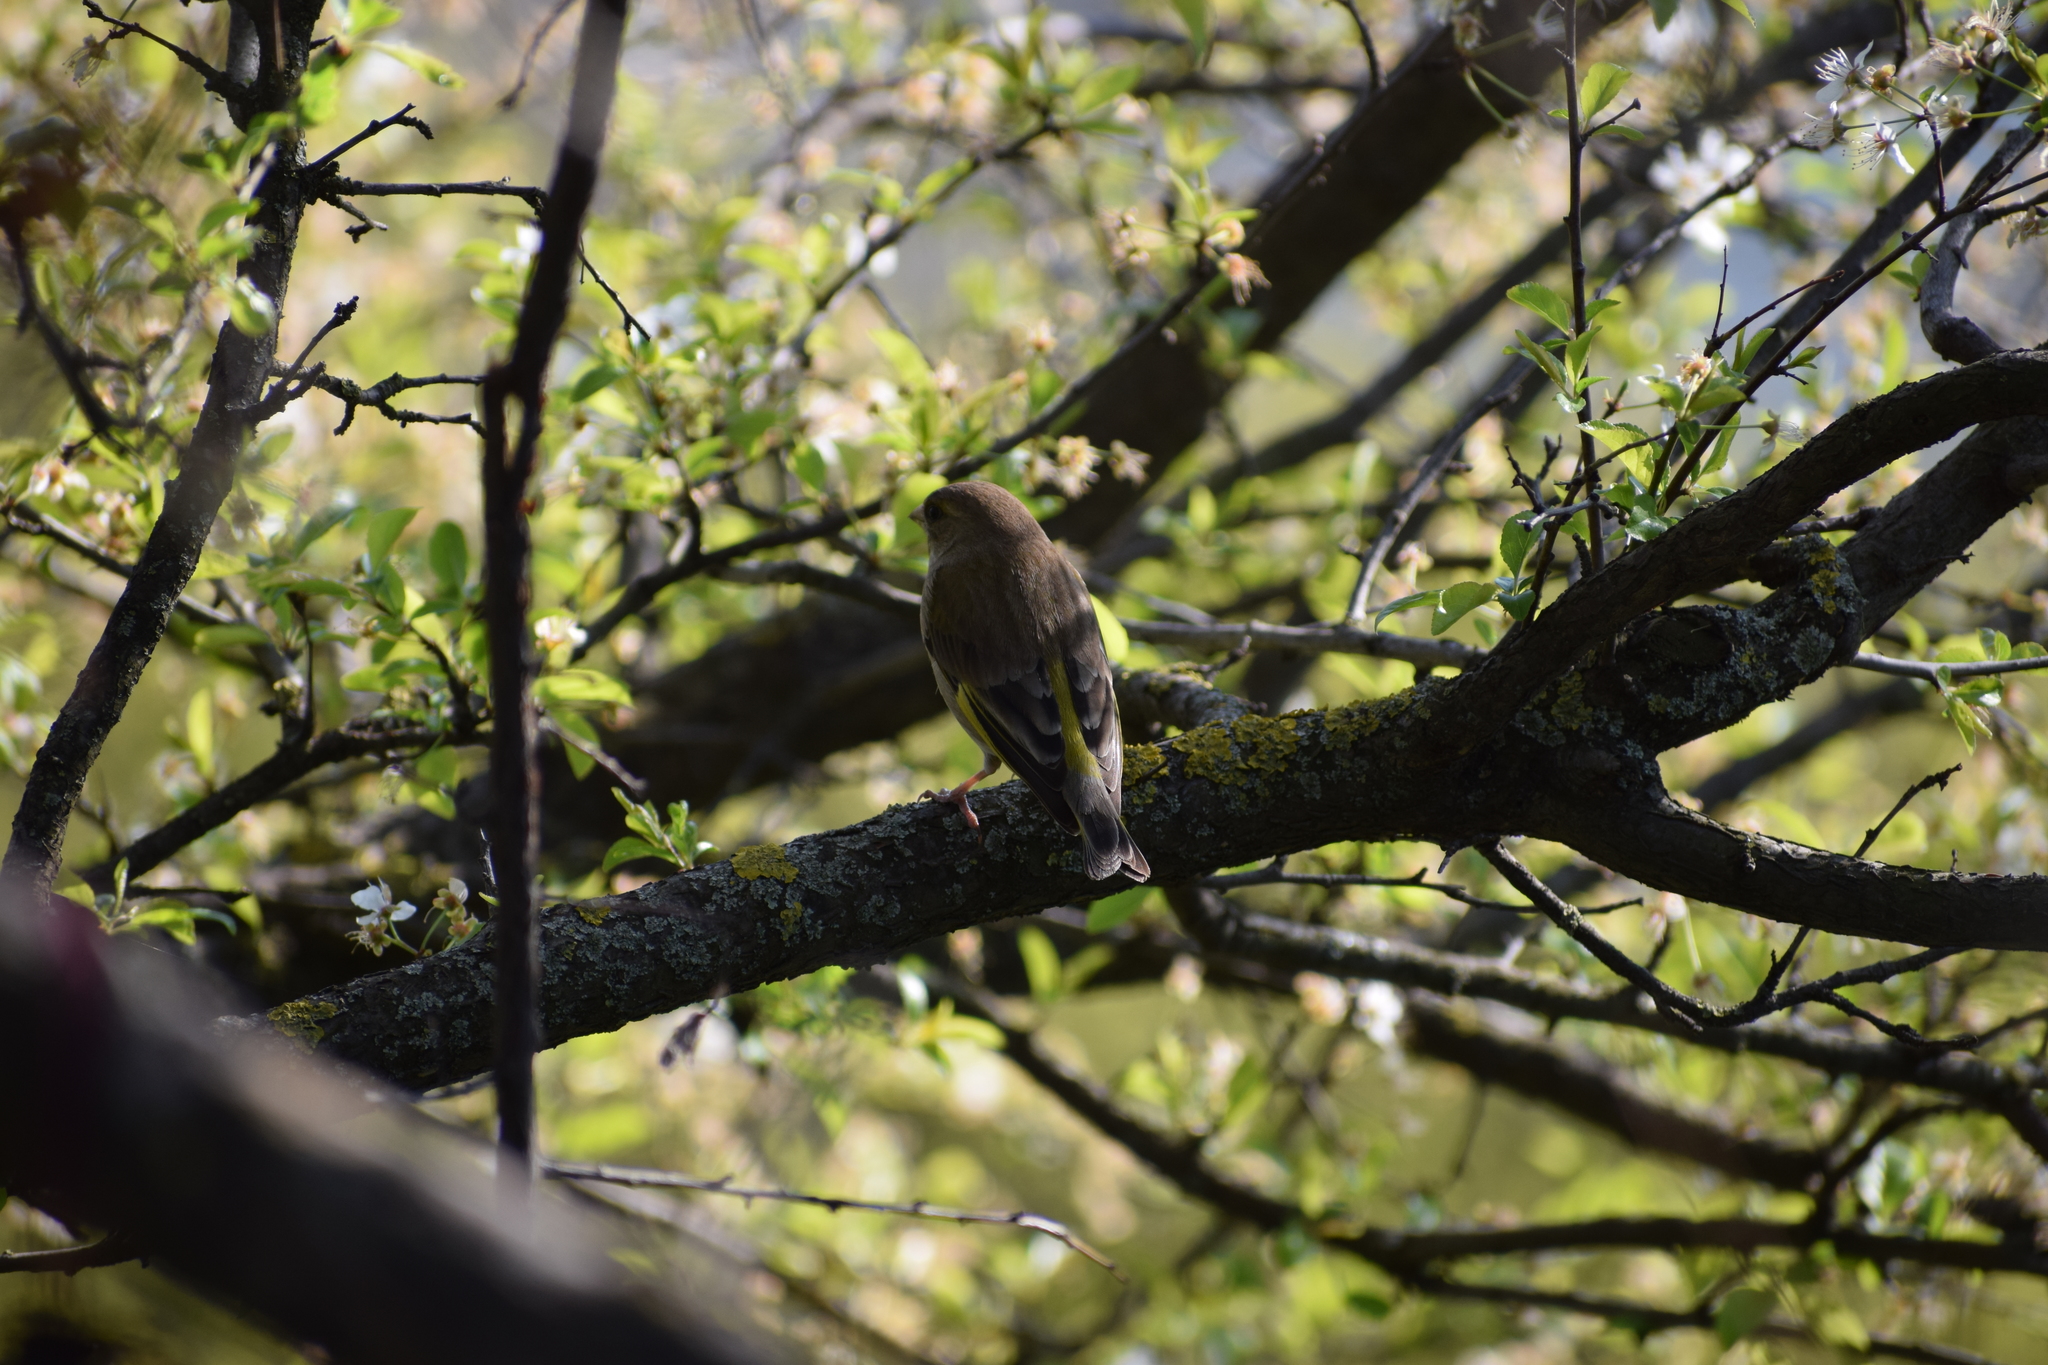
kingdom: Plantae
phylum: Tracheophyta
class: Liliopsida
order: Poales
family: Poaceae
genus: Chloris
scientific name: Chloris chloris
